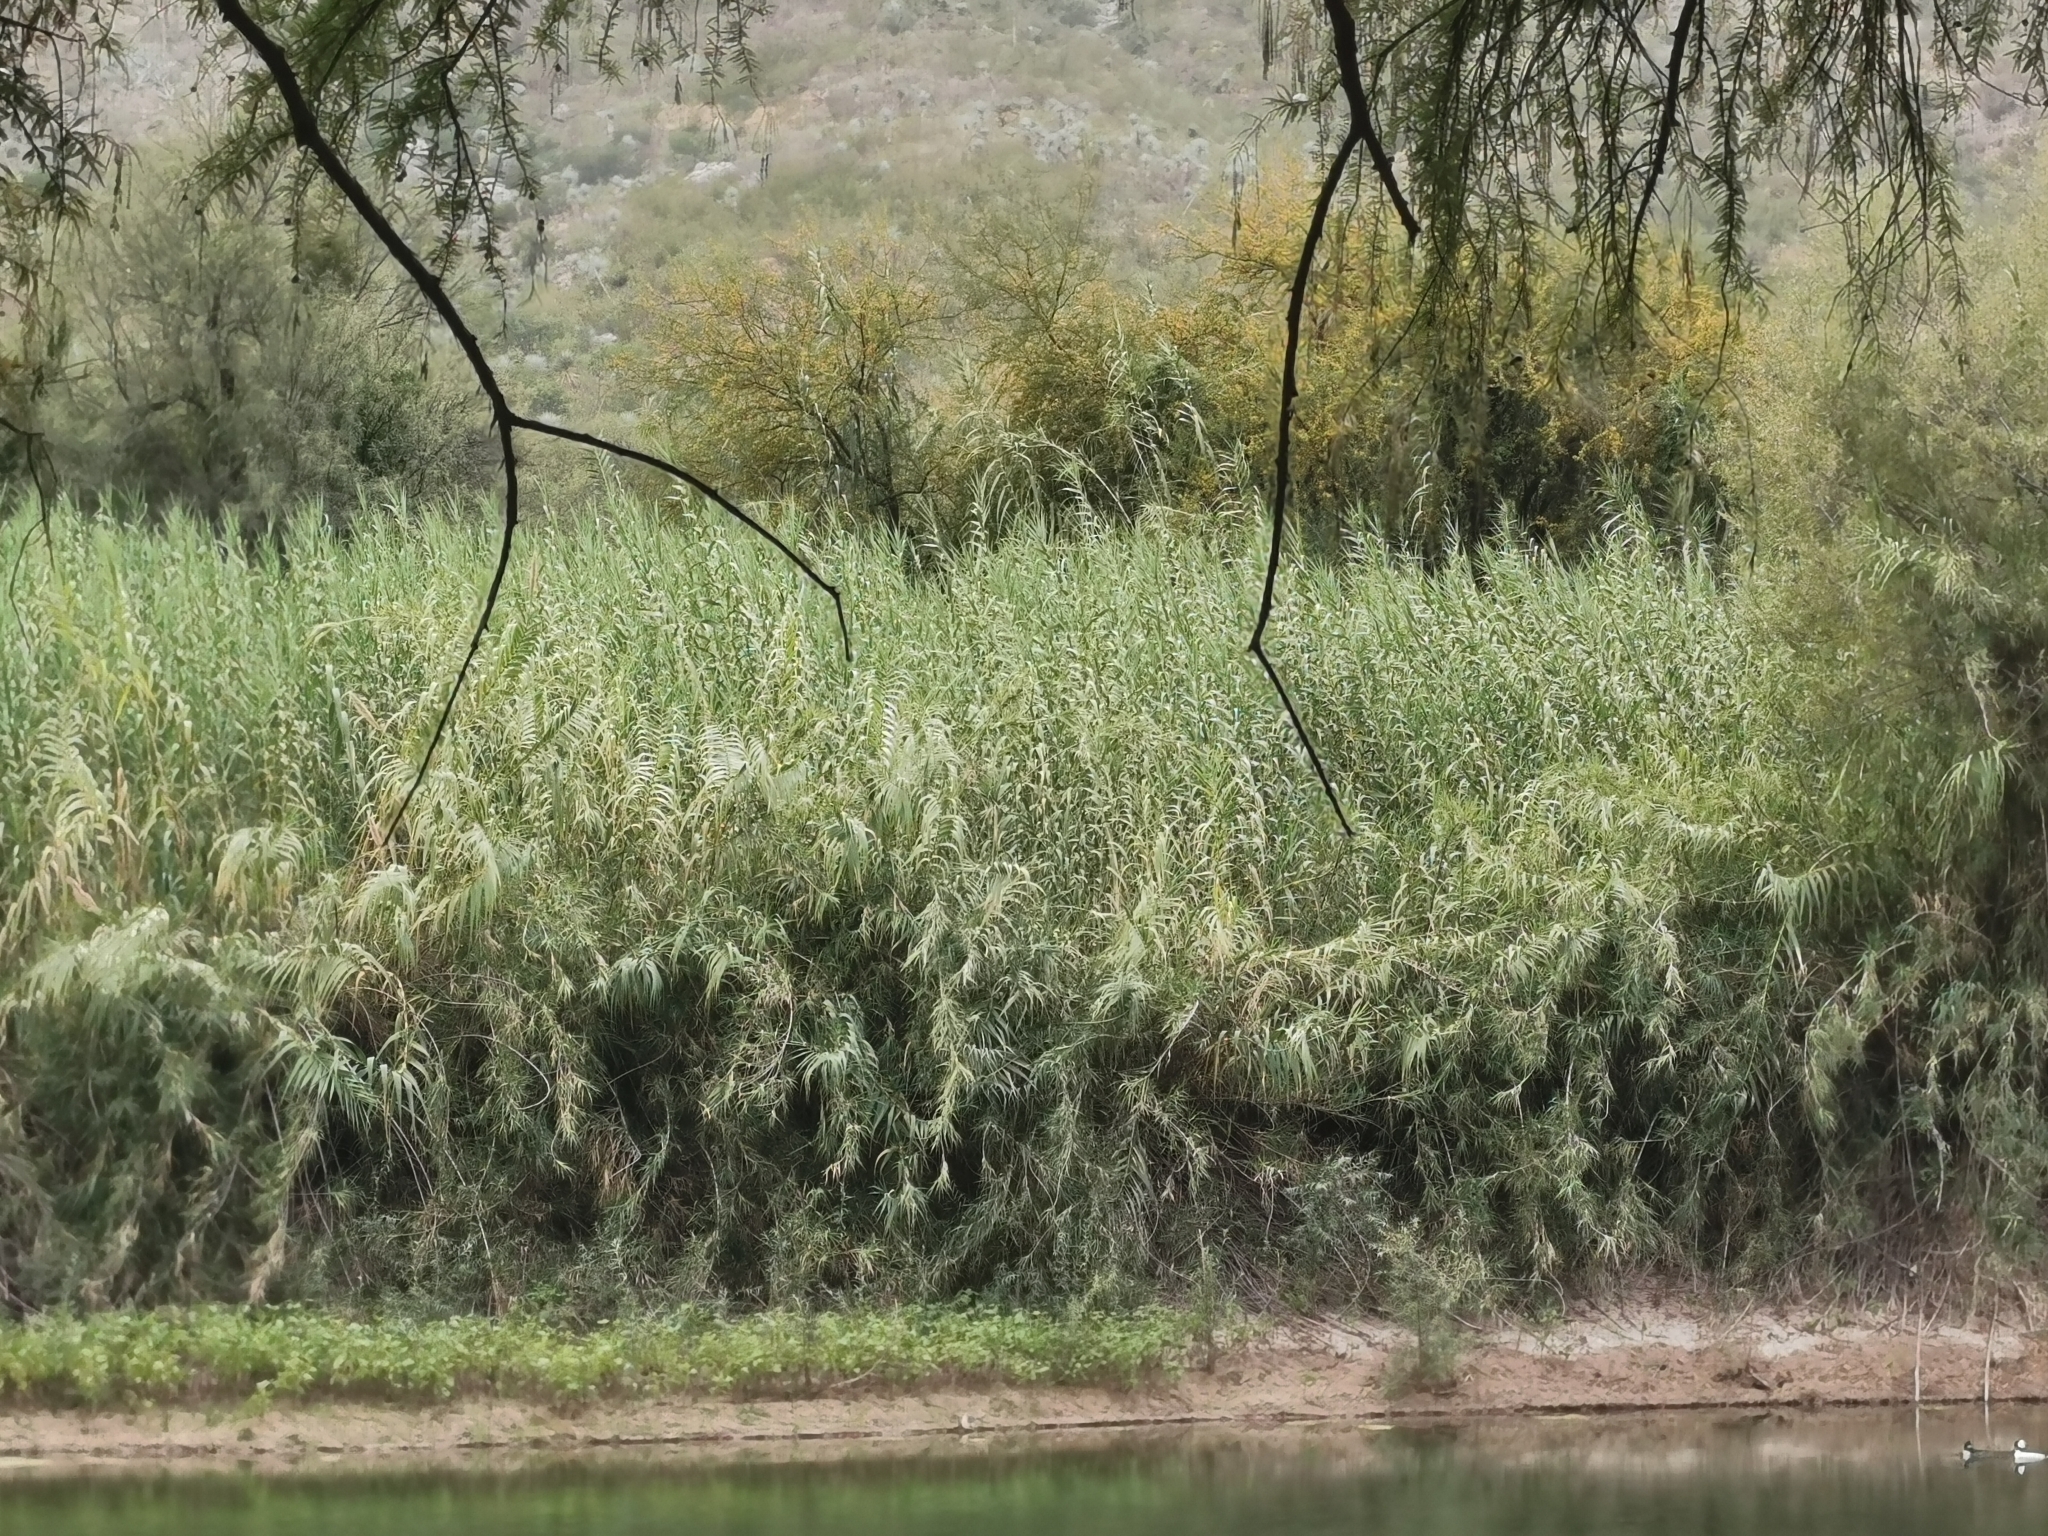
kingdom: Plantae
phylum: Tracheophyta
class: Liliopsida
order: Poales
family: Poaceae
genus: Arundo
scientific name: Arundo donax
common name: Giant reed
